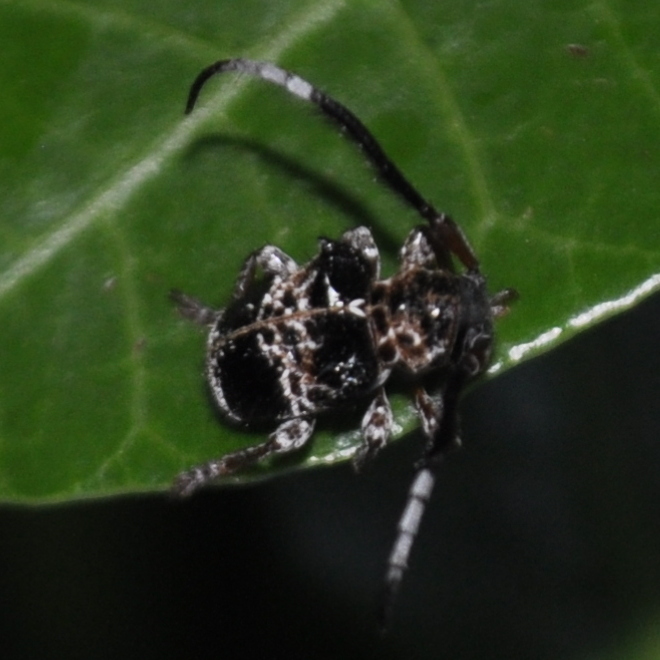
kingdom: Animalia
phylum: Arthropoda
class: Insecta
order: Coleoptera
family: Cerambycidae
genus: Tessarecphora
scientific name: Tessarecphora arachnoides
